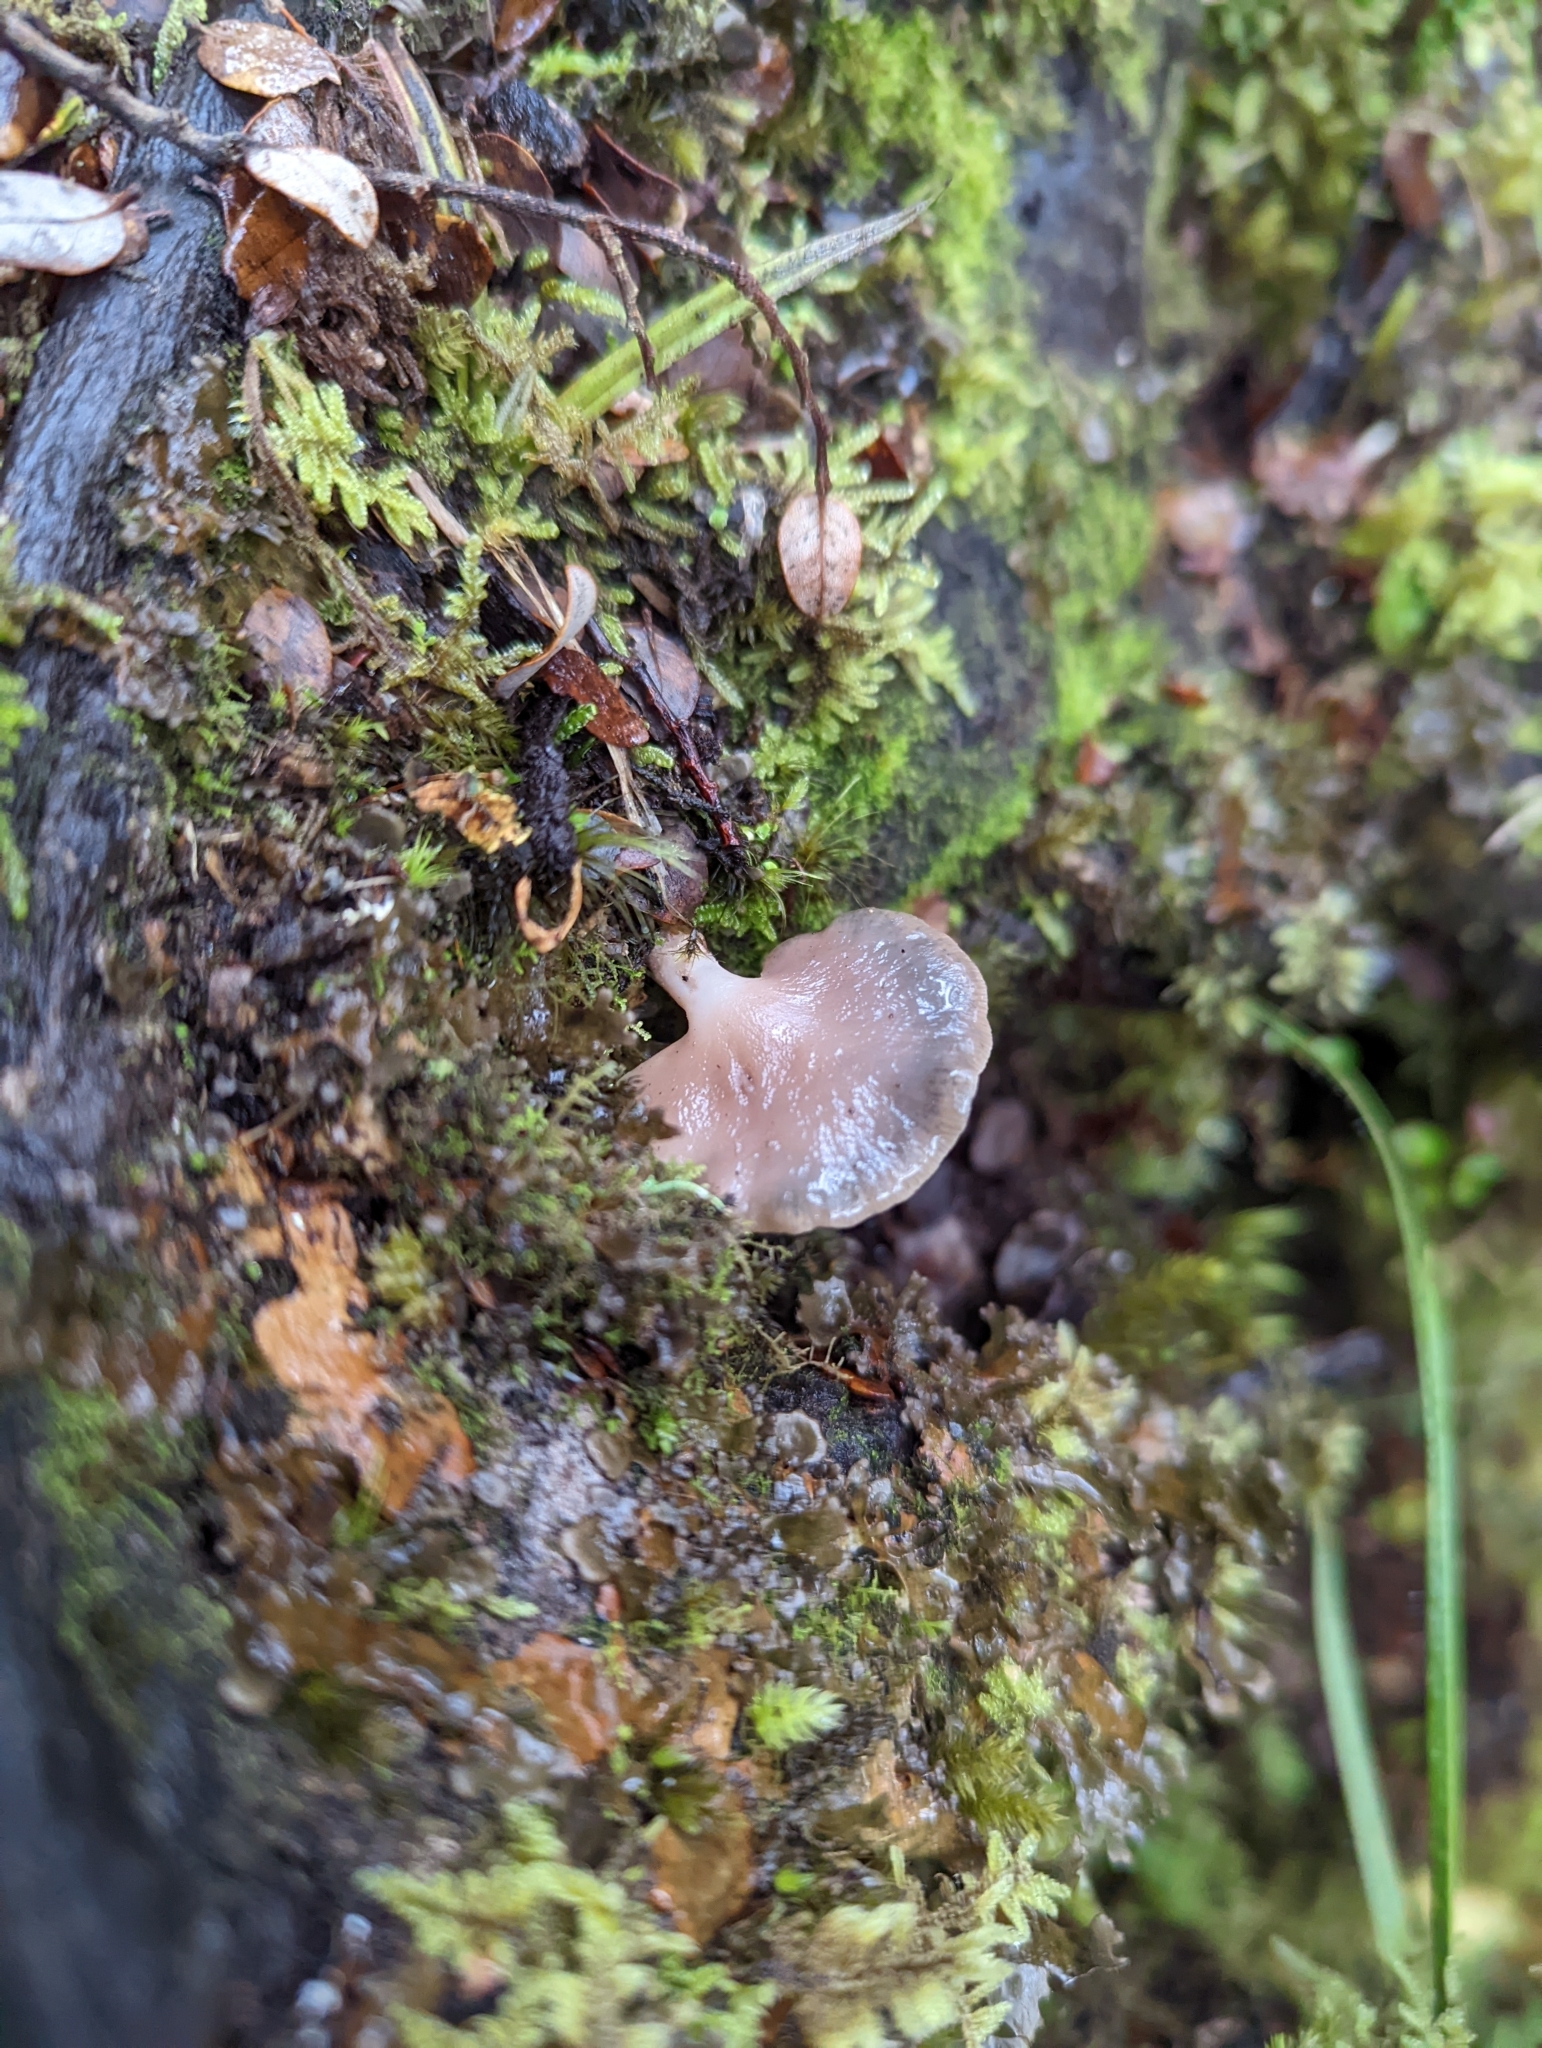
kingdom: Fungi
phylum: Basidiomycota
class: Agaricomycetes
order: Agaricales
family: Mycenaceae
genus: Panellus
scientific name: Panellus longinquus
